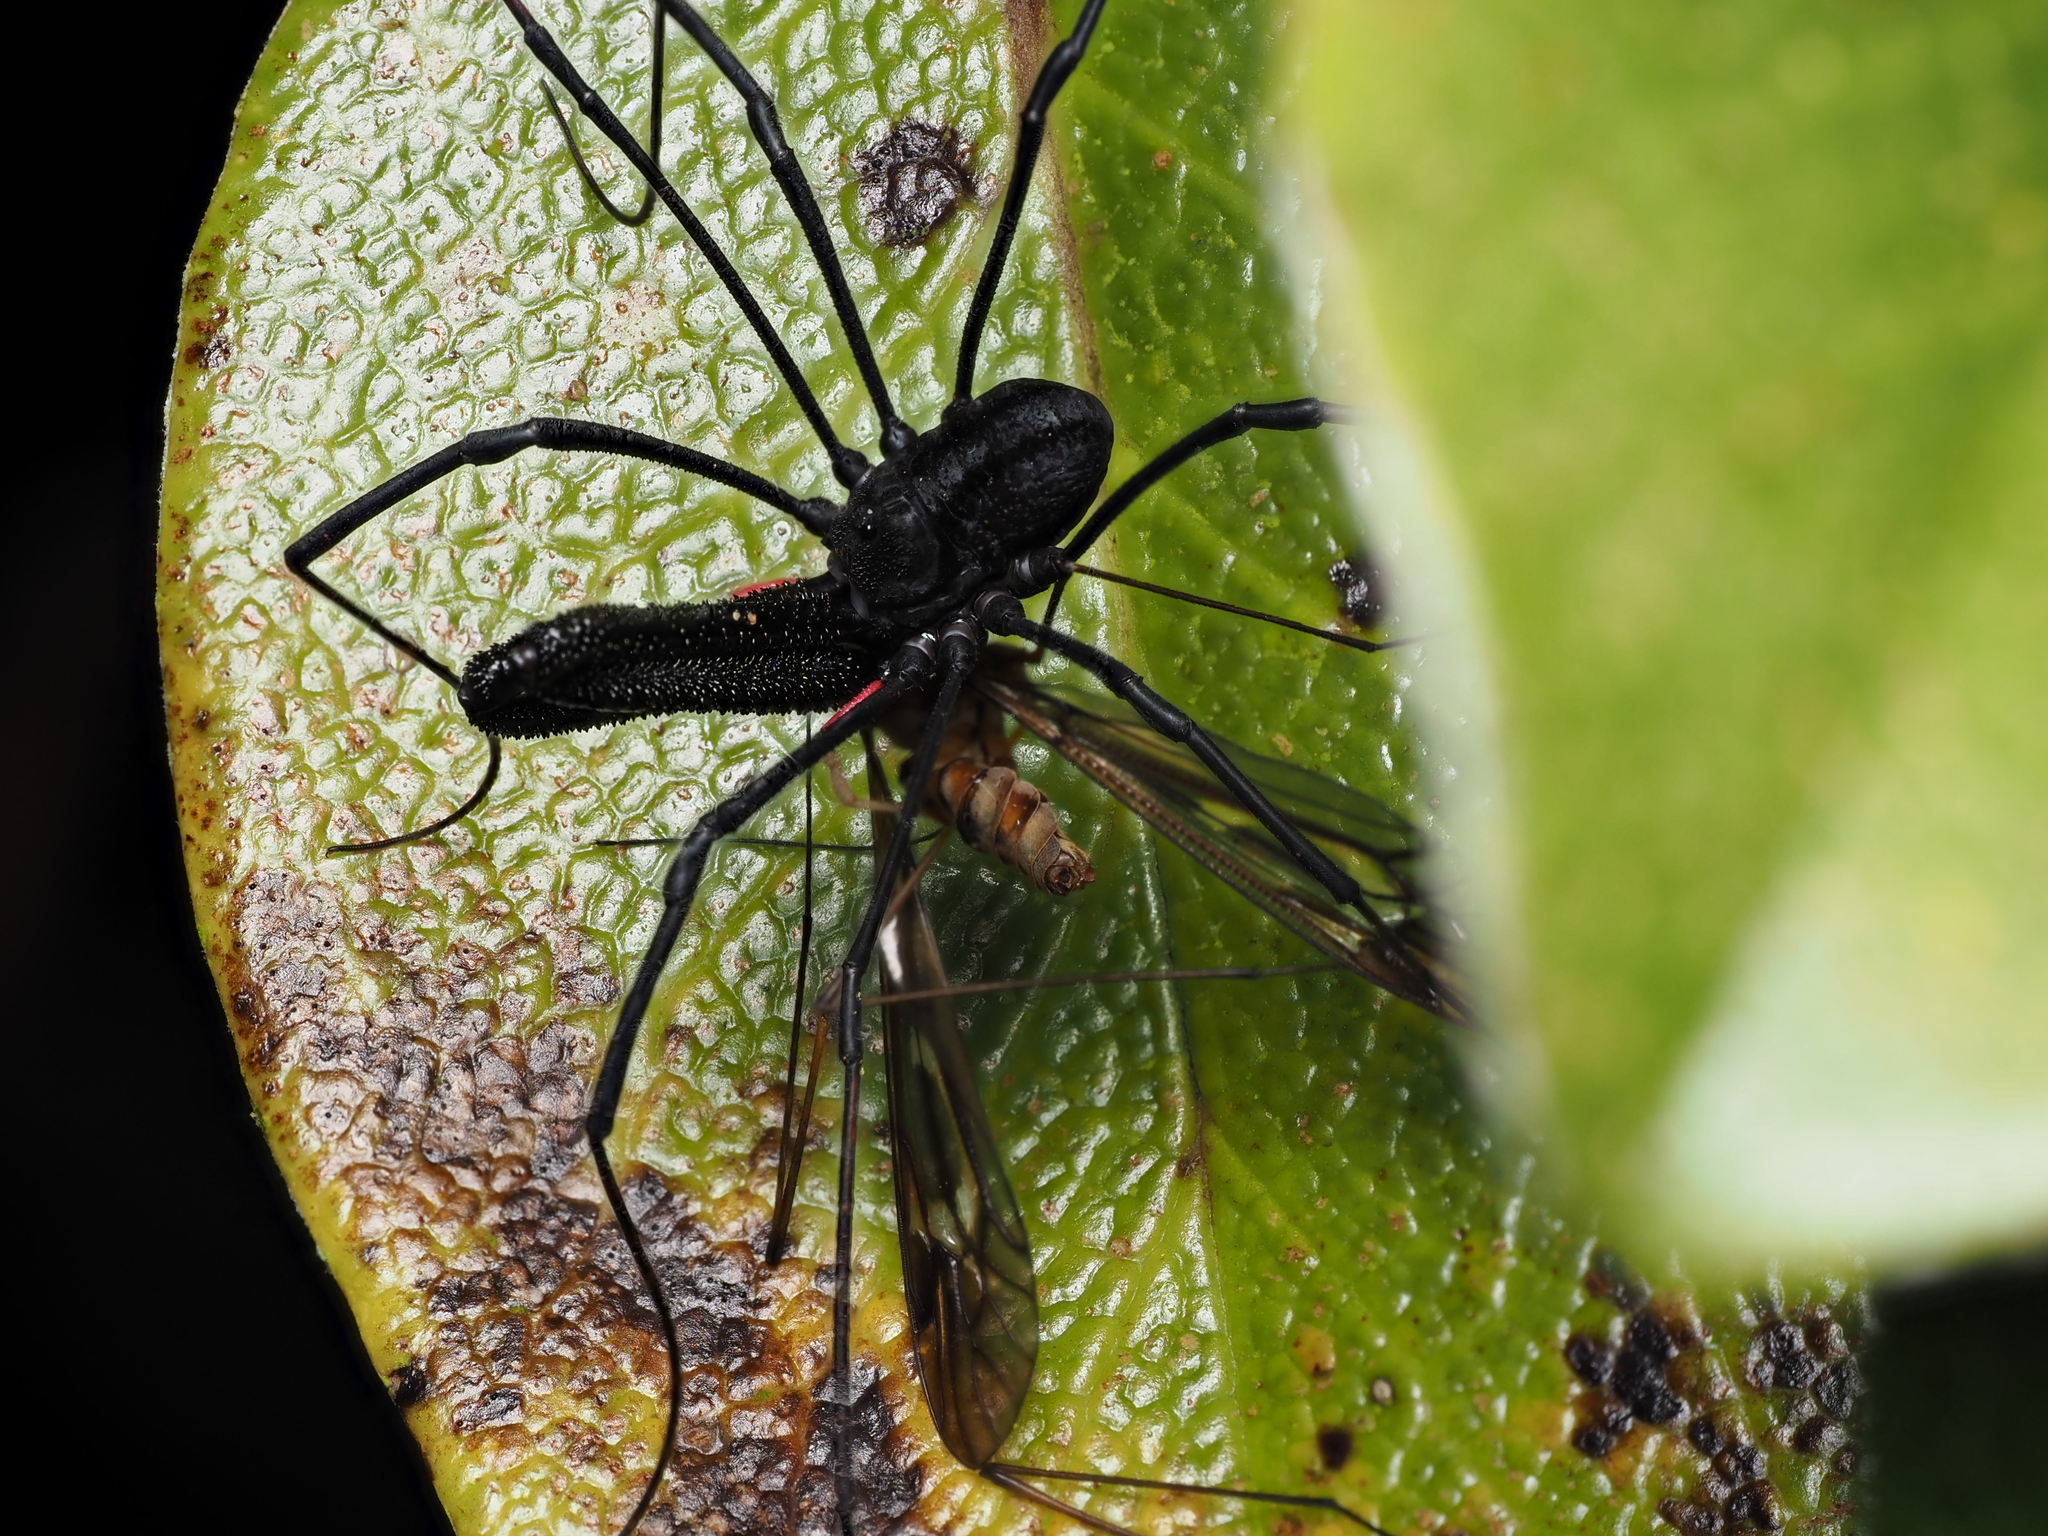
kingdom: Animalia
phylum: Arthropoda
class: Arachnida
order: Opiliones
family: Neopilionidae
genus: Forsteropsalis
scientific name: Forsteropsalis inconstans
